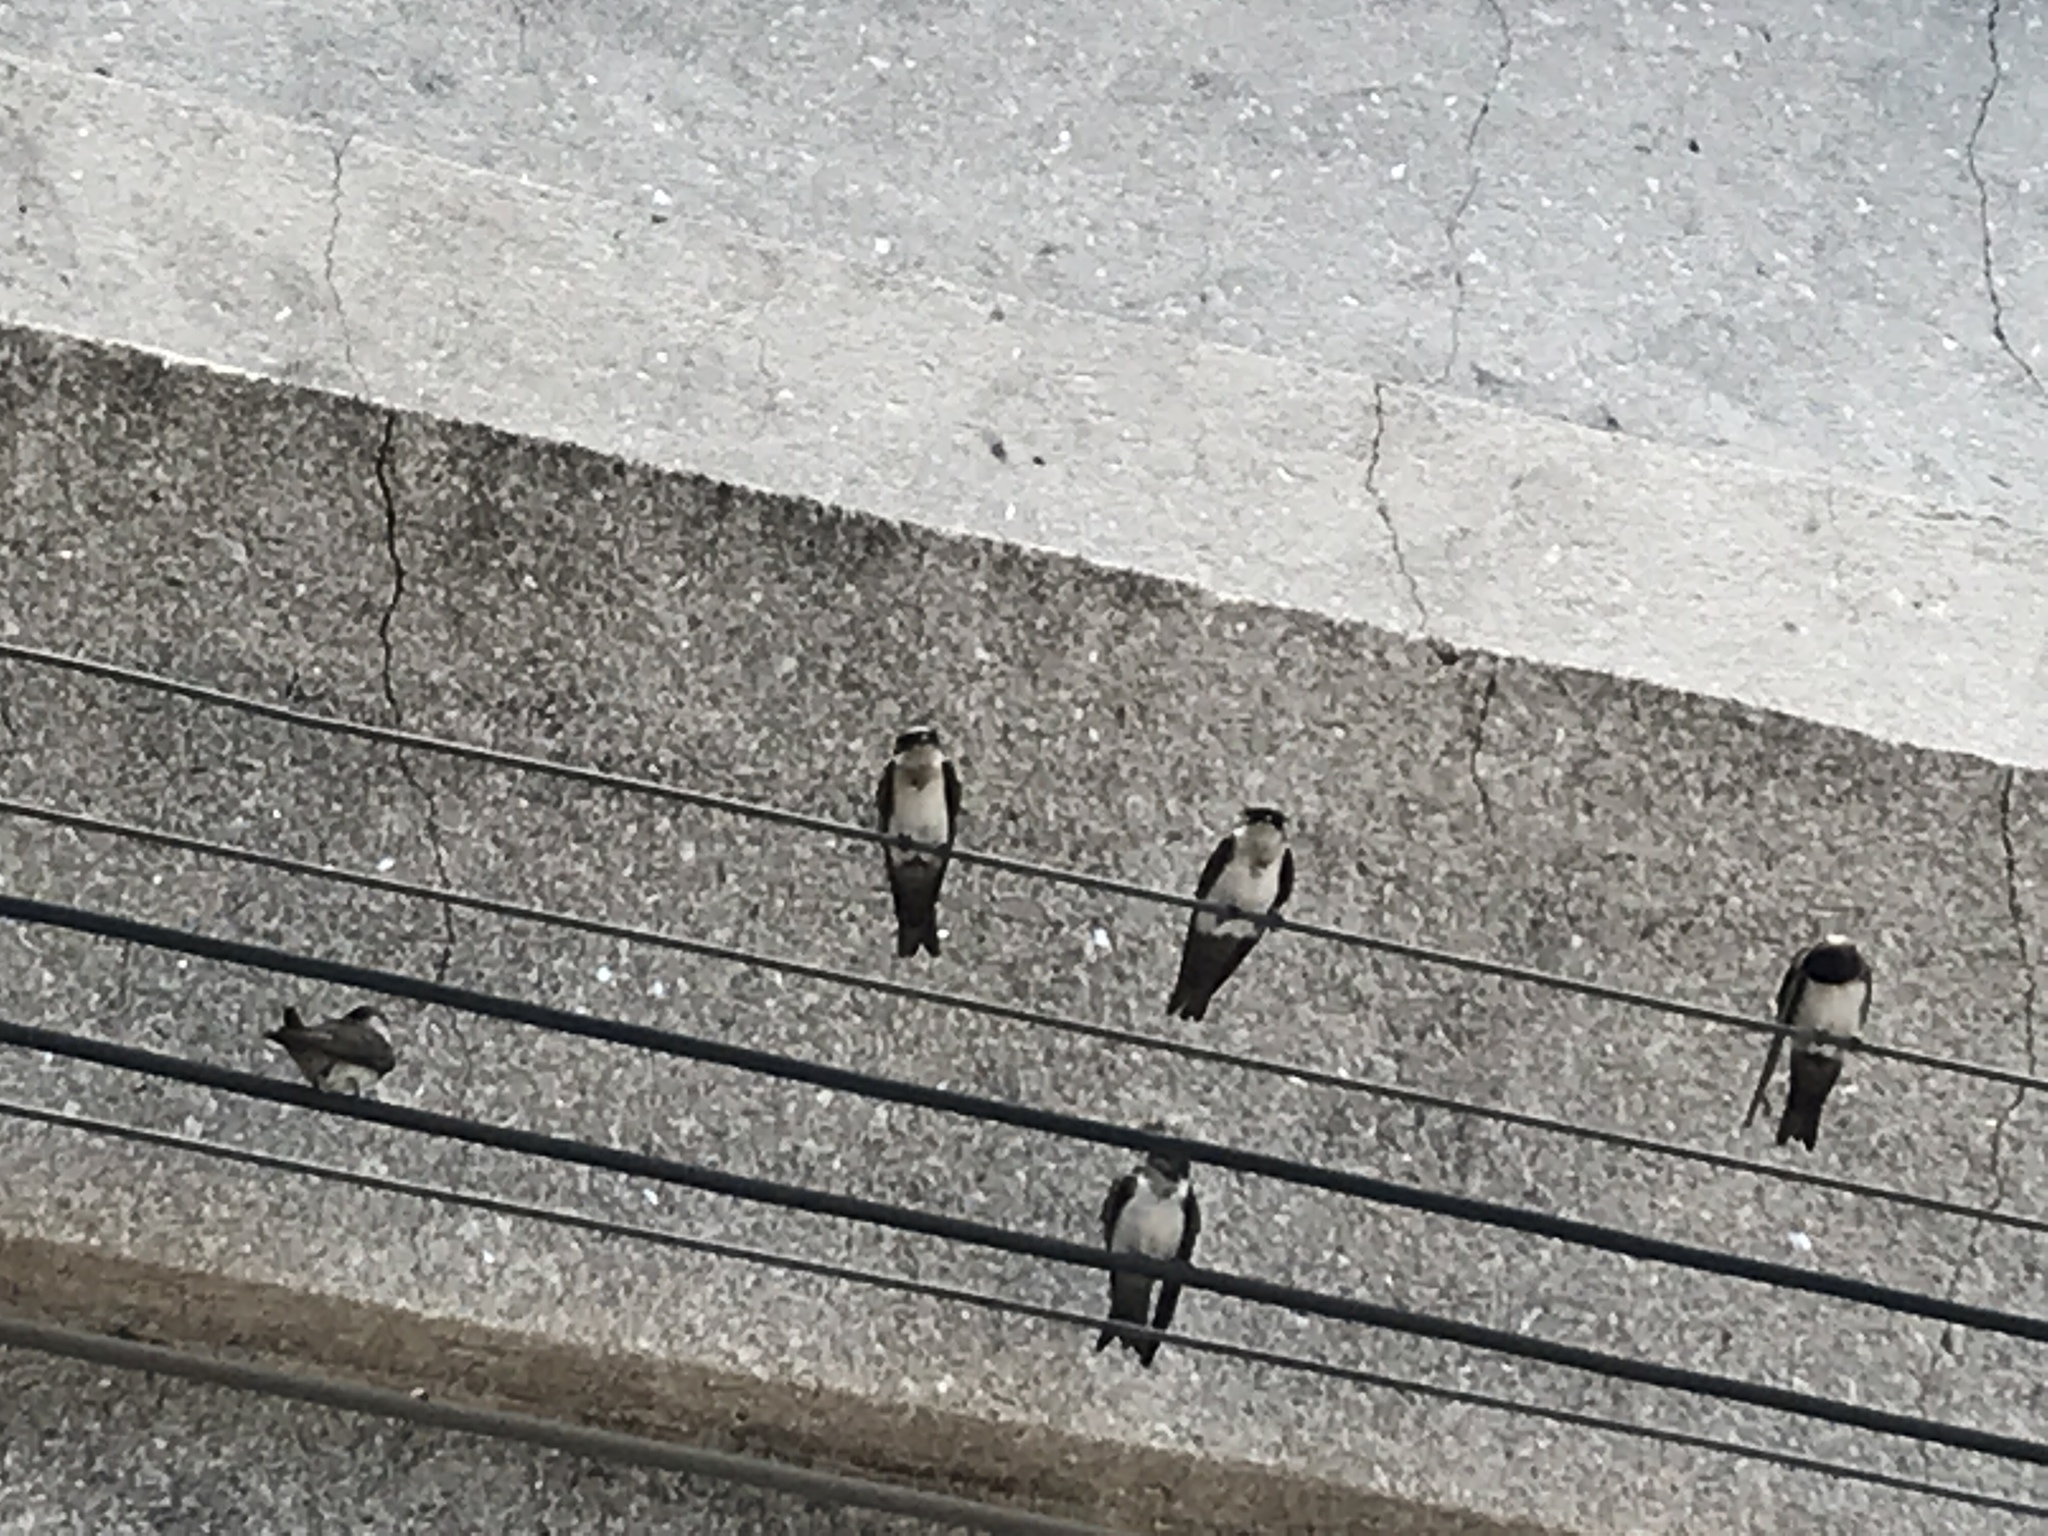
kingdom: Animalia
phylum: Chordata
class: Aves
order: Passeriformes
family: Hirundinidae
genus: Notiochelidon
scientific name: Notiochelidon cyanoleuca
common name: Blue-and-white swallow
